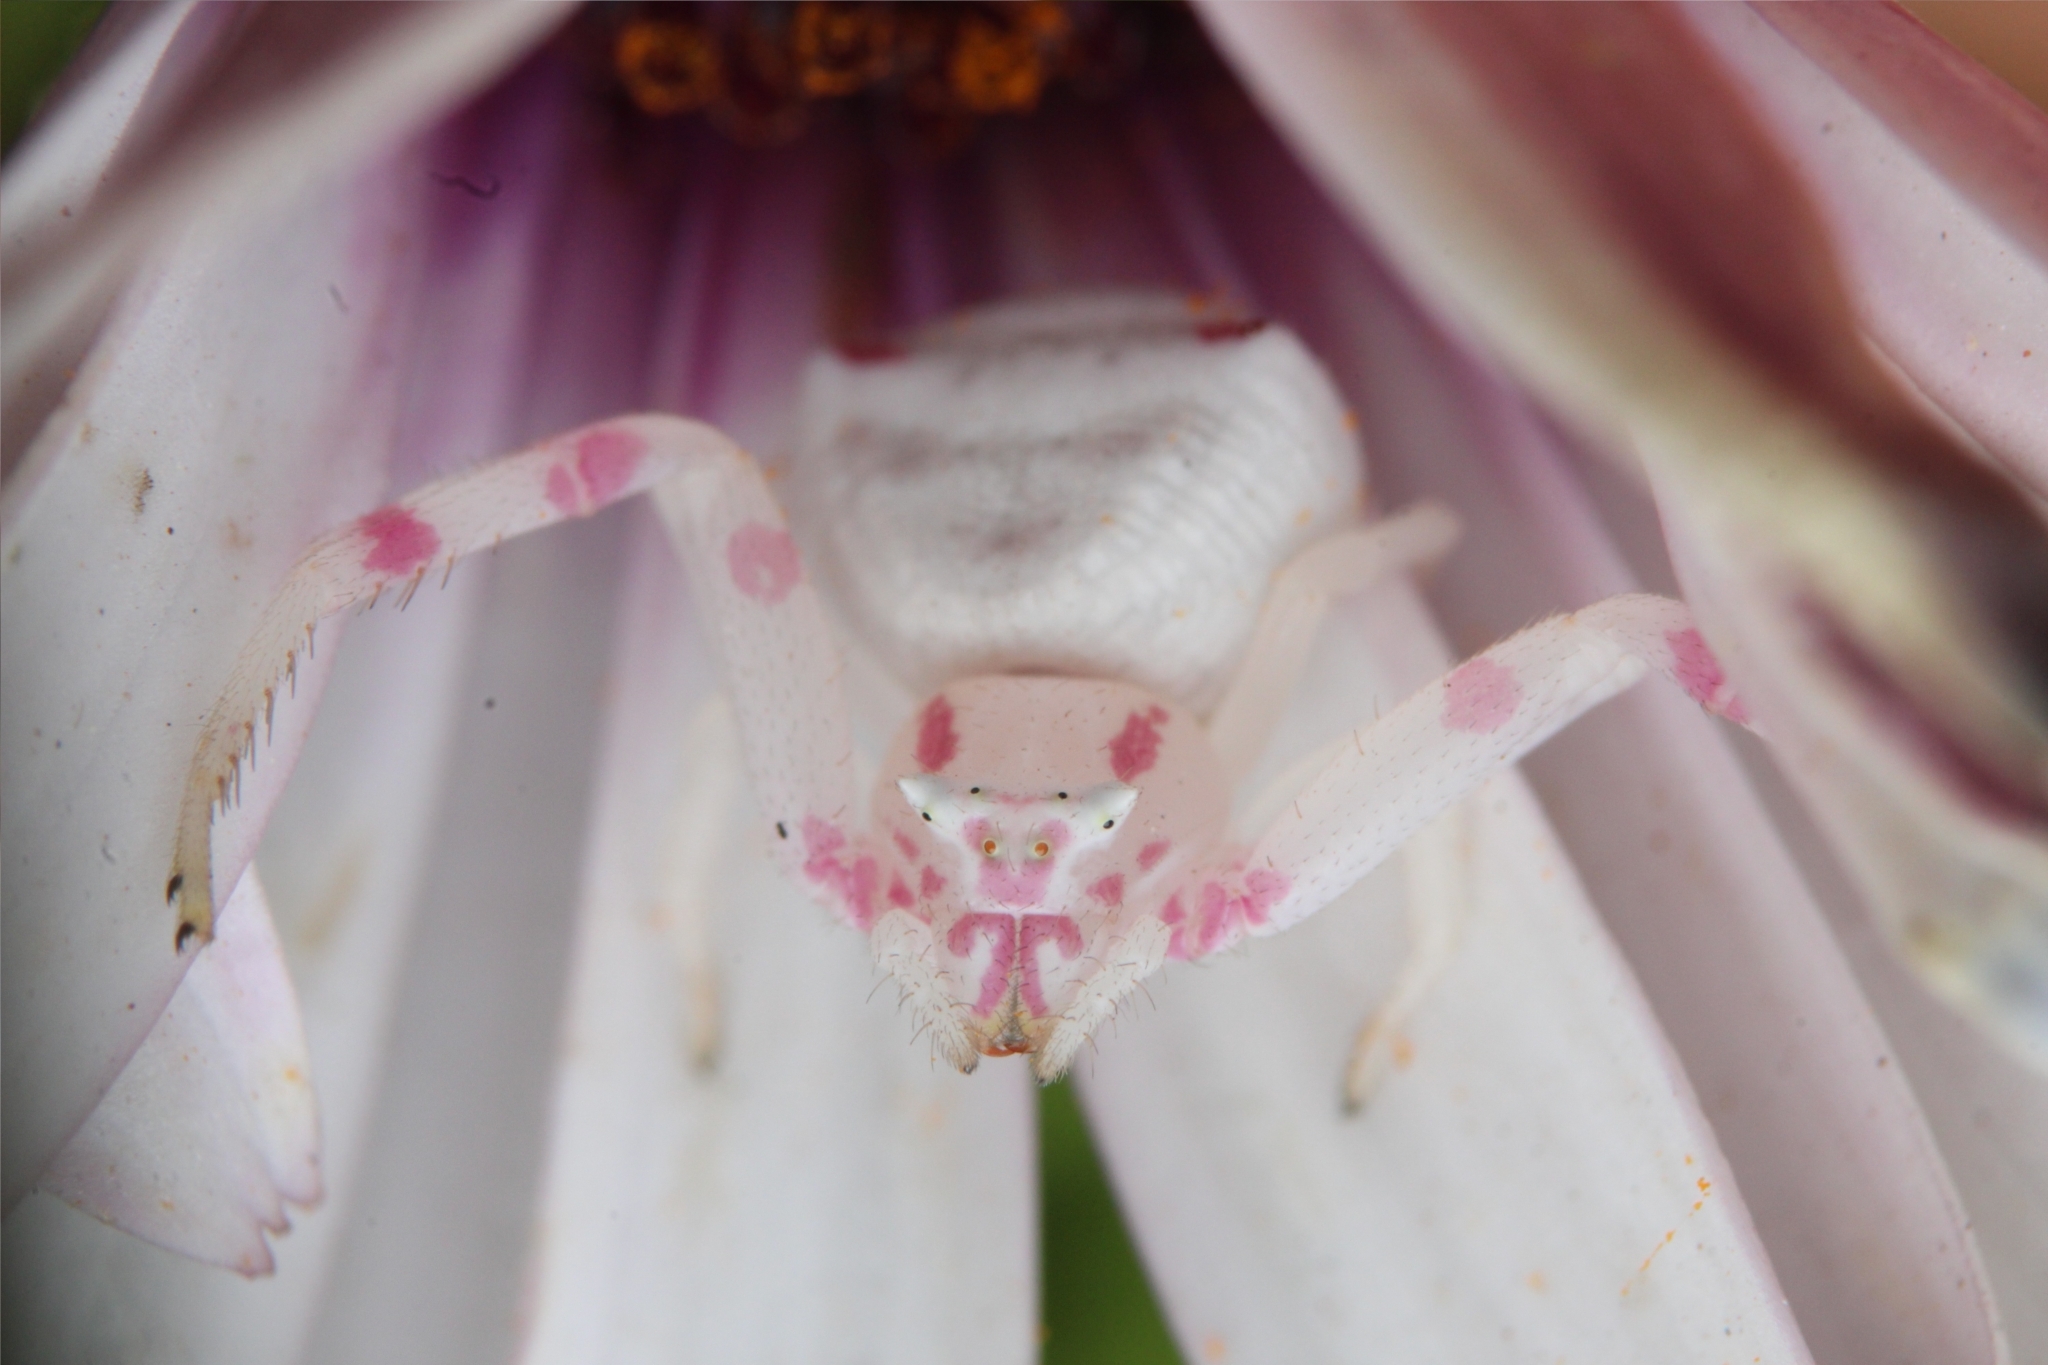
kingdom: Animalia
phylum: Arthropoda
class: Arachnida
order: Araneae
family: Thomisidae
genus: Thomisus
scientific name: Thomisus citrinellus
